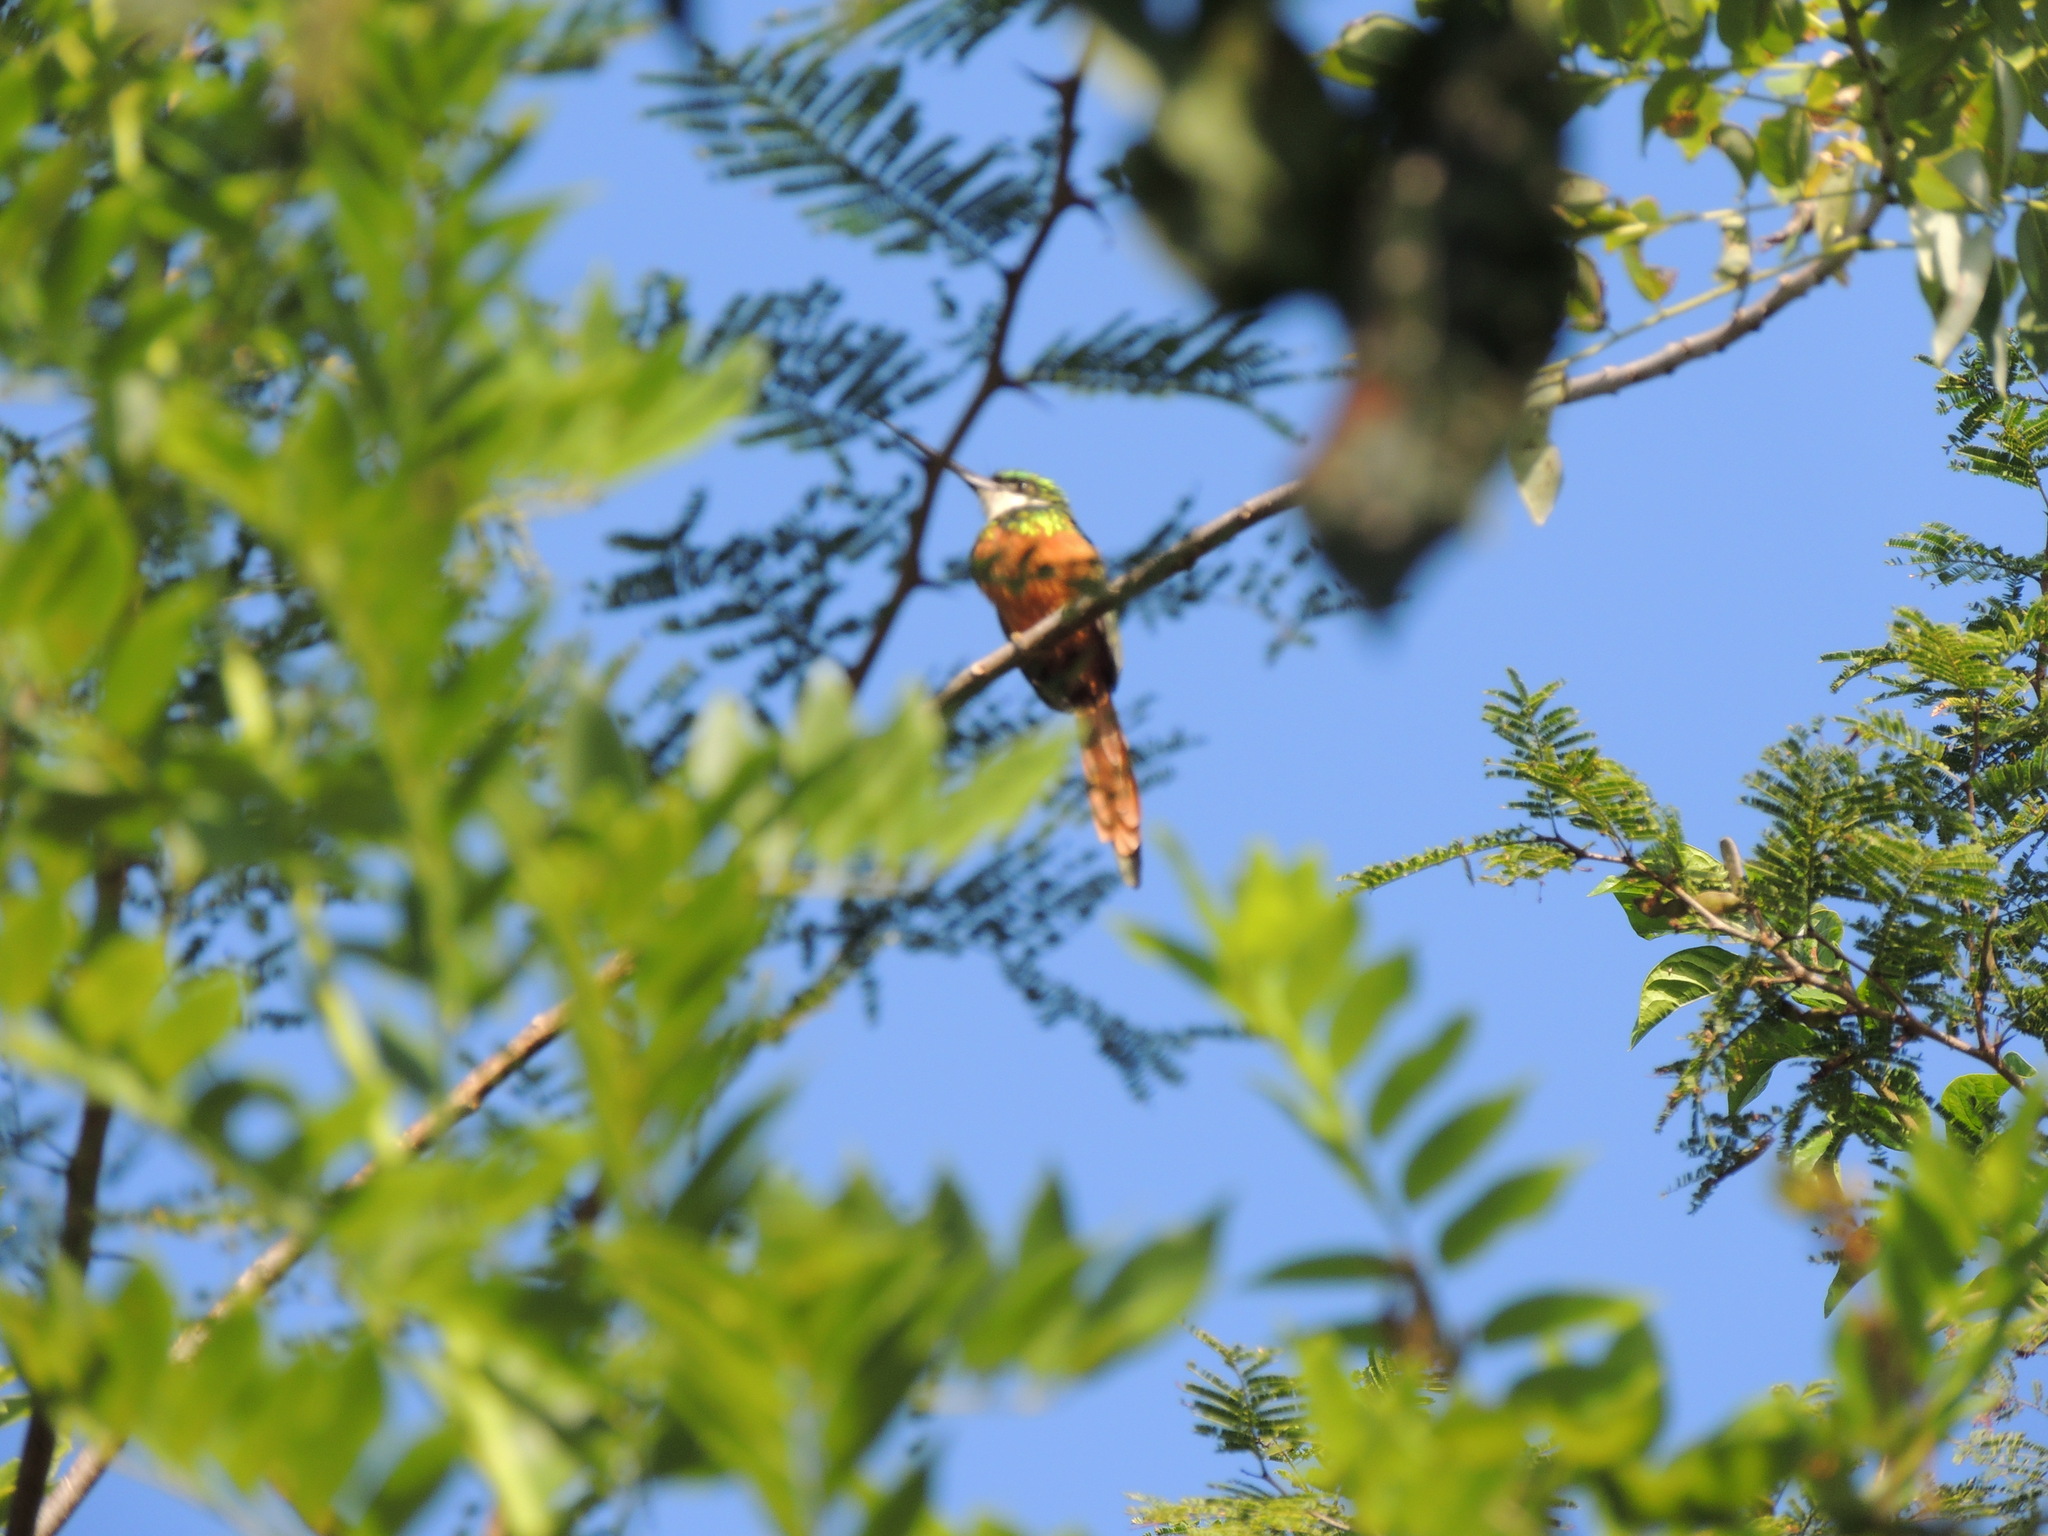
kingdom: Animalia
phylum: Chordata
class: Aves
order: Piciformes
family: Galbulidae
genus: Galbula
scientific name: Galbula ruficauda
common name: Rufous-tailed jacamar
